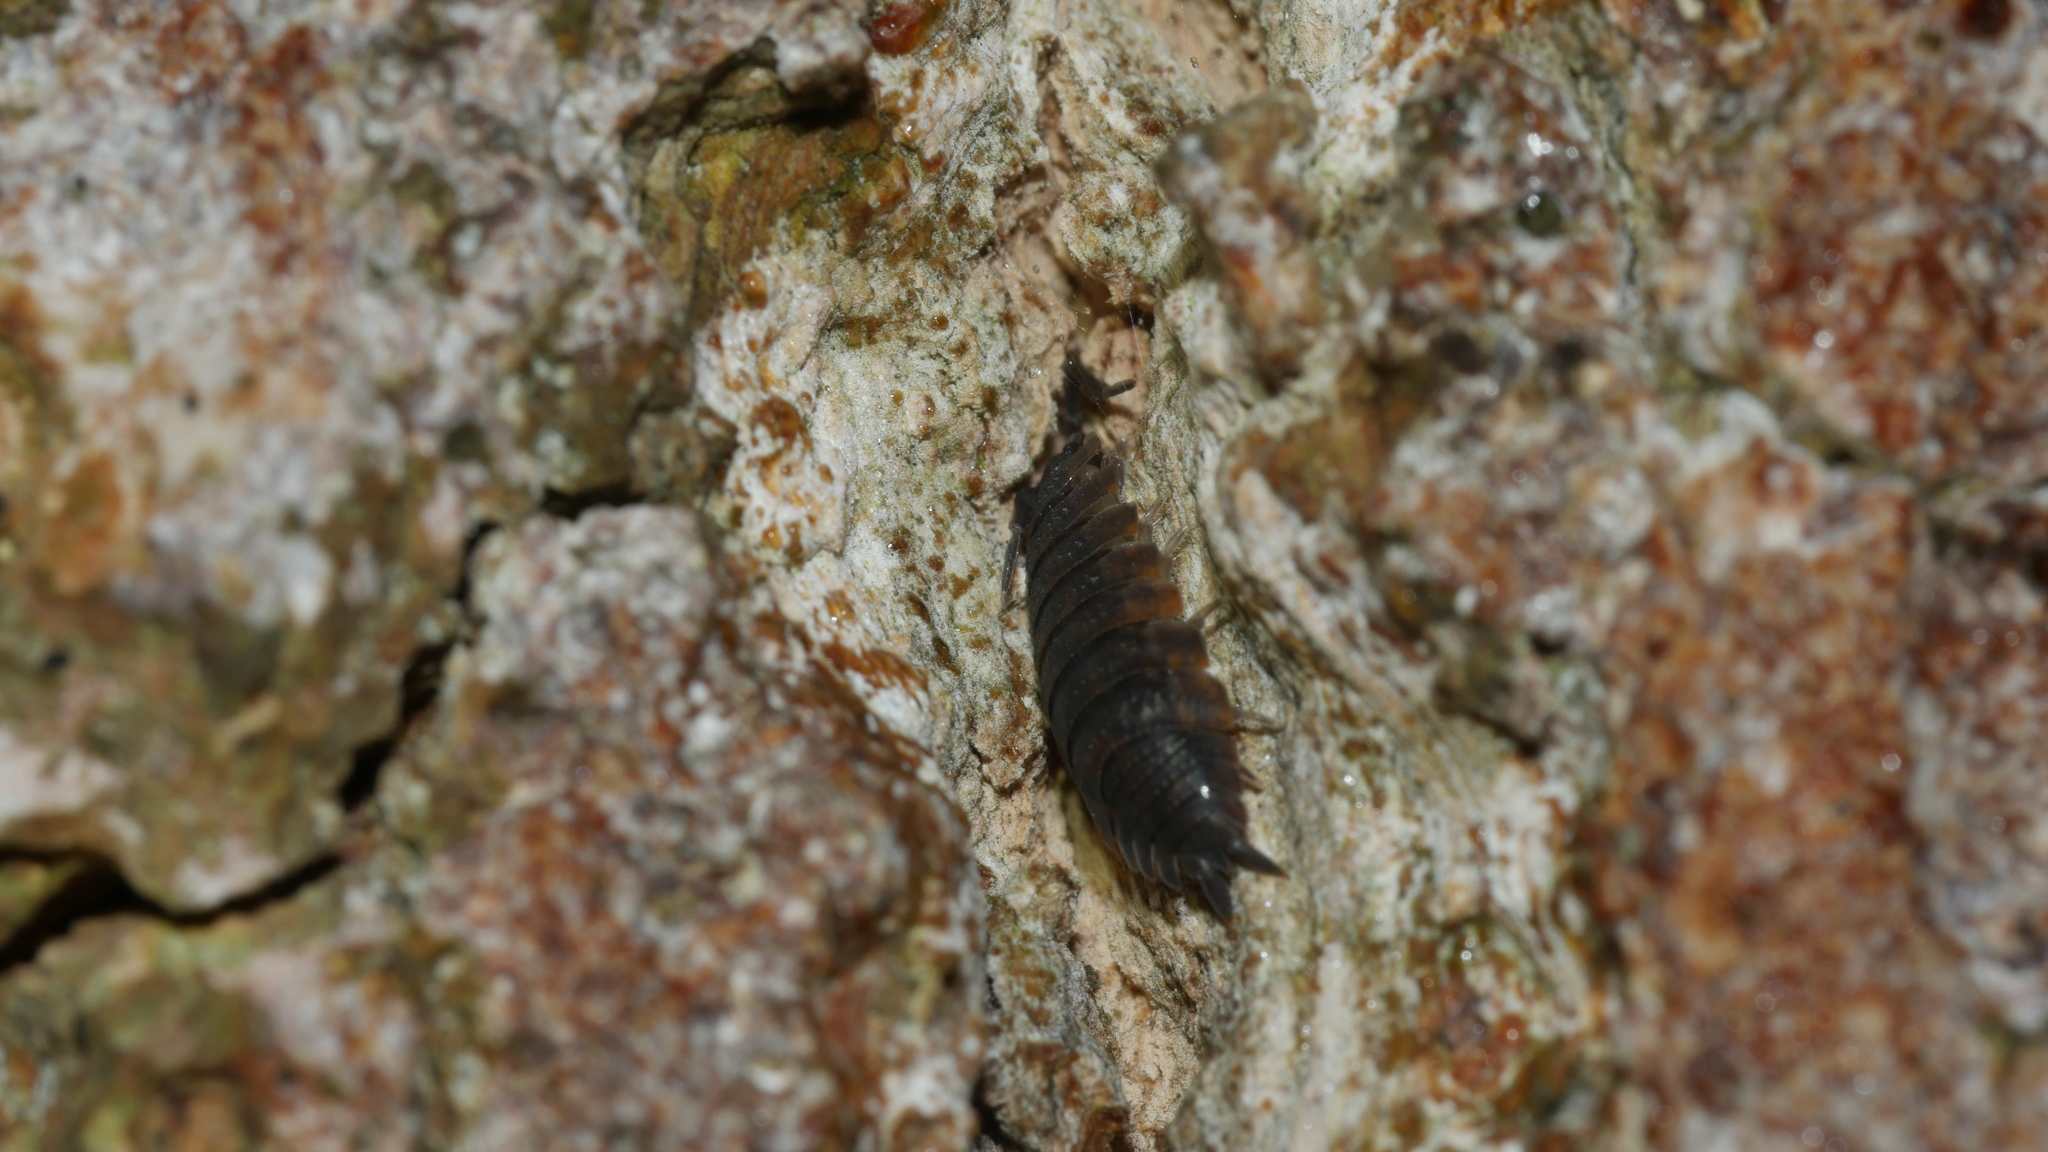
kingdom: Animalia
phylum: Arthropoda
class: Malacostraca
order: Isopoda
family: Porcellionidae
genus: Porcellio
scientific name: Porcellio scaber
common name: Common rough woodlouse
